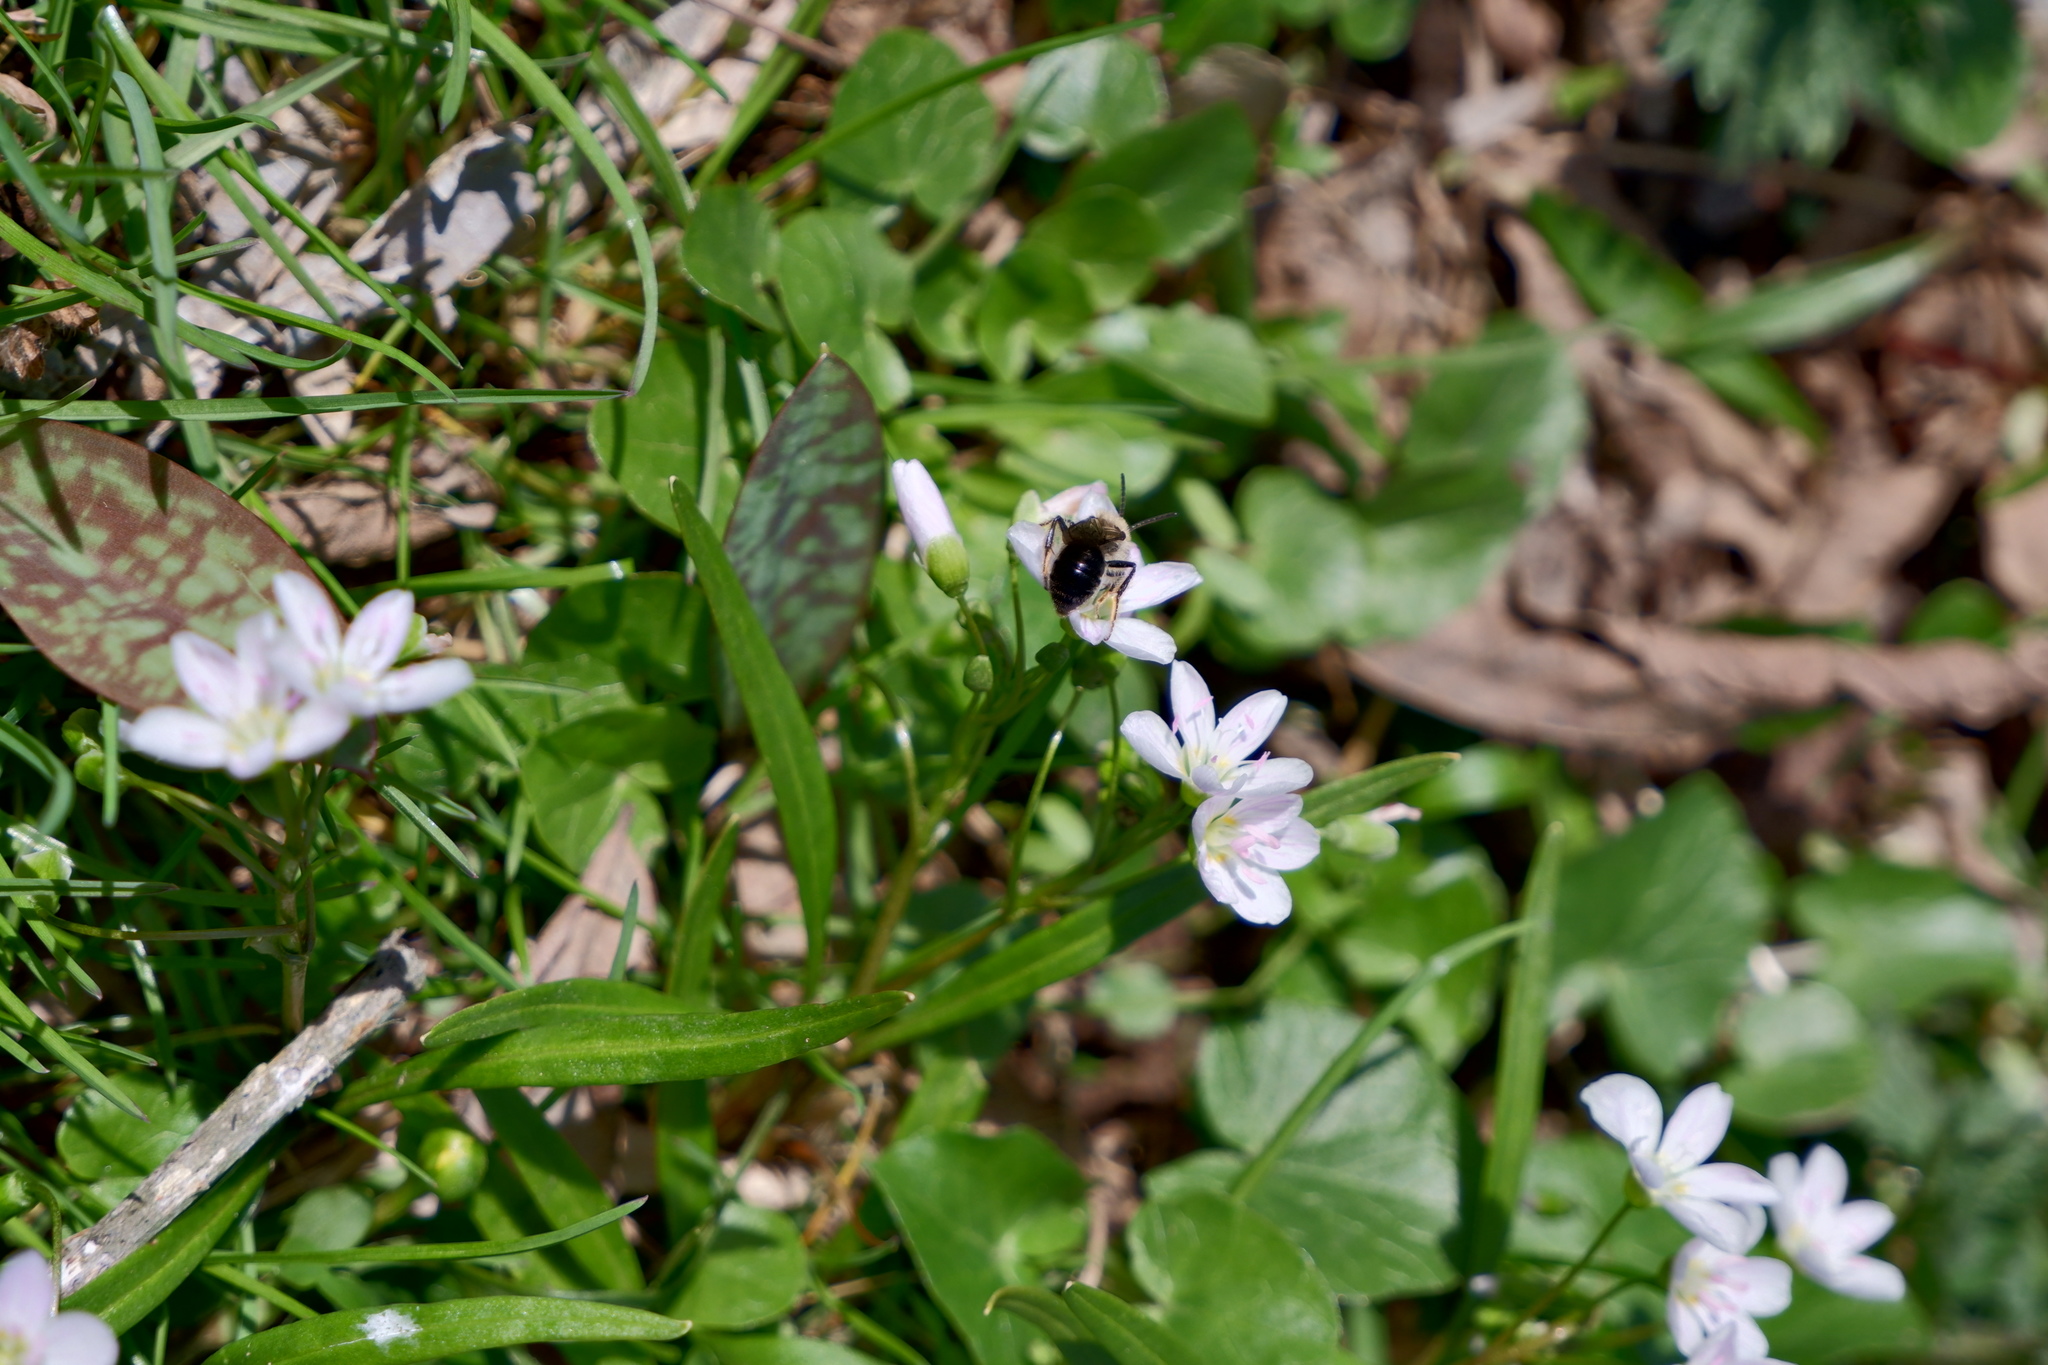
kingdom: Animalia
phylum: Arthropoda
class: Insecta
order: Hymenoptera
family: Andrenidae
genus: Andrena
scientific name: Andrena erigeniae
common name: Spring beauty miner
